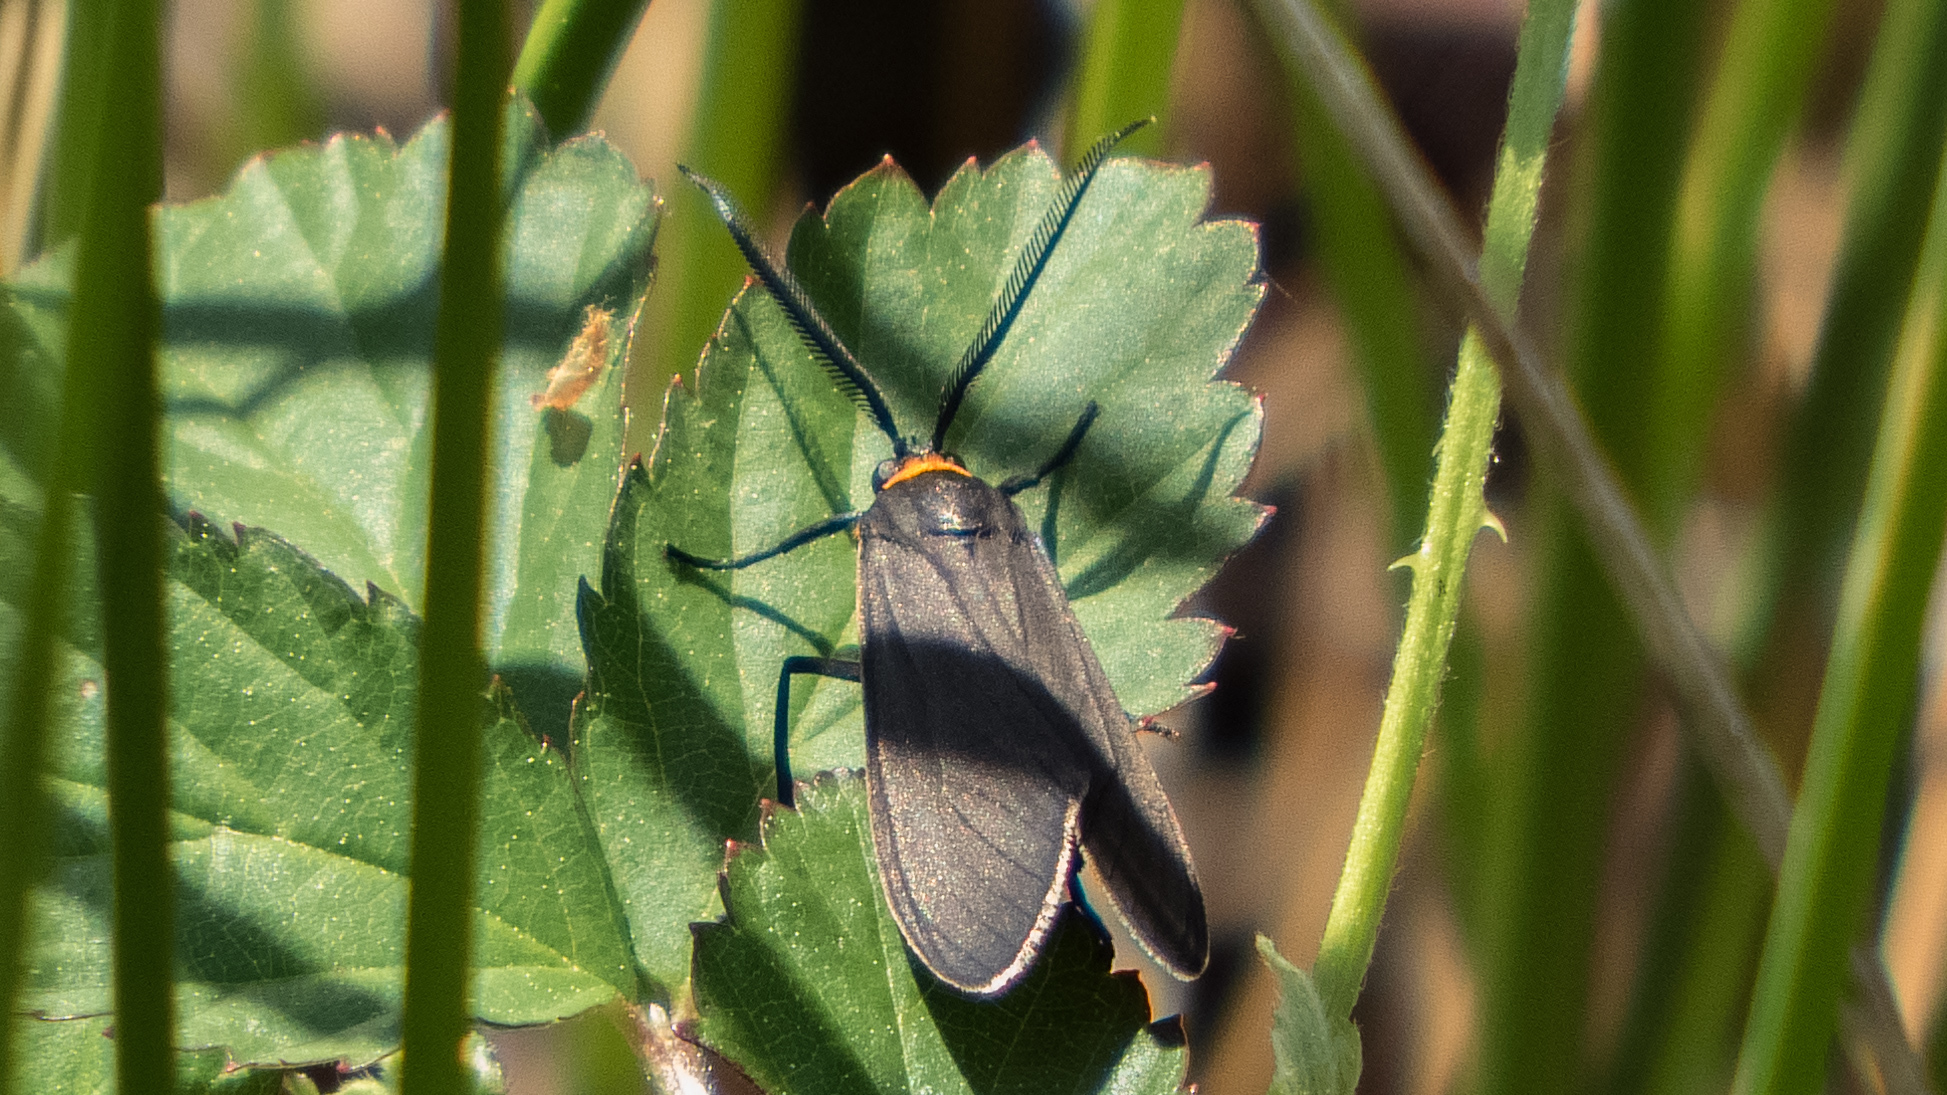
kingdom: Animalia
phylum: Arthropoda
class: Insecta
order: Lepidoptera
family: Erebidae
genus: Cisseps
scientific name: Cisseps fulvicollis
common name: Yellow-collared scape moth
